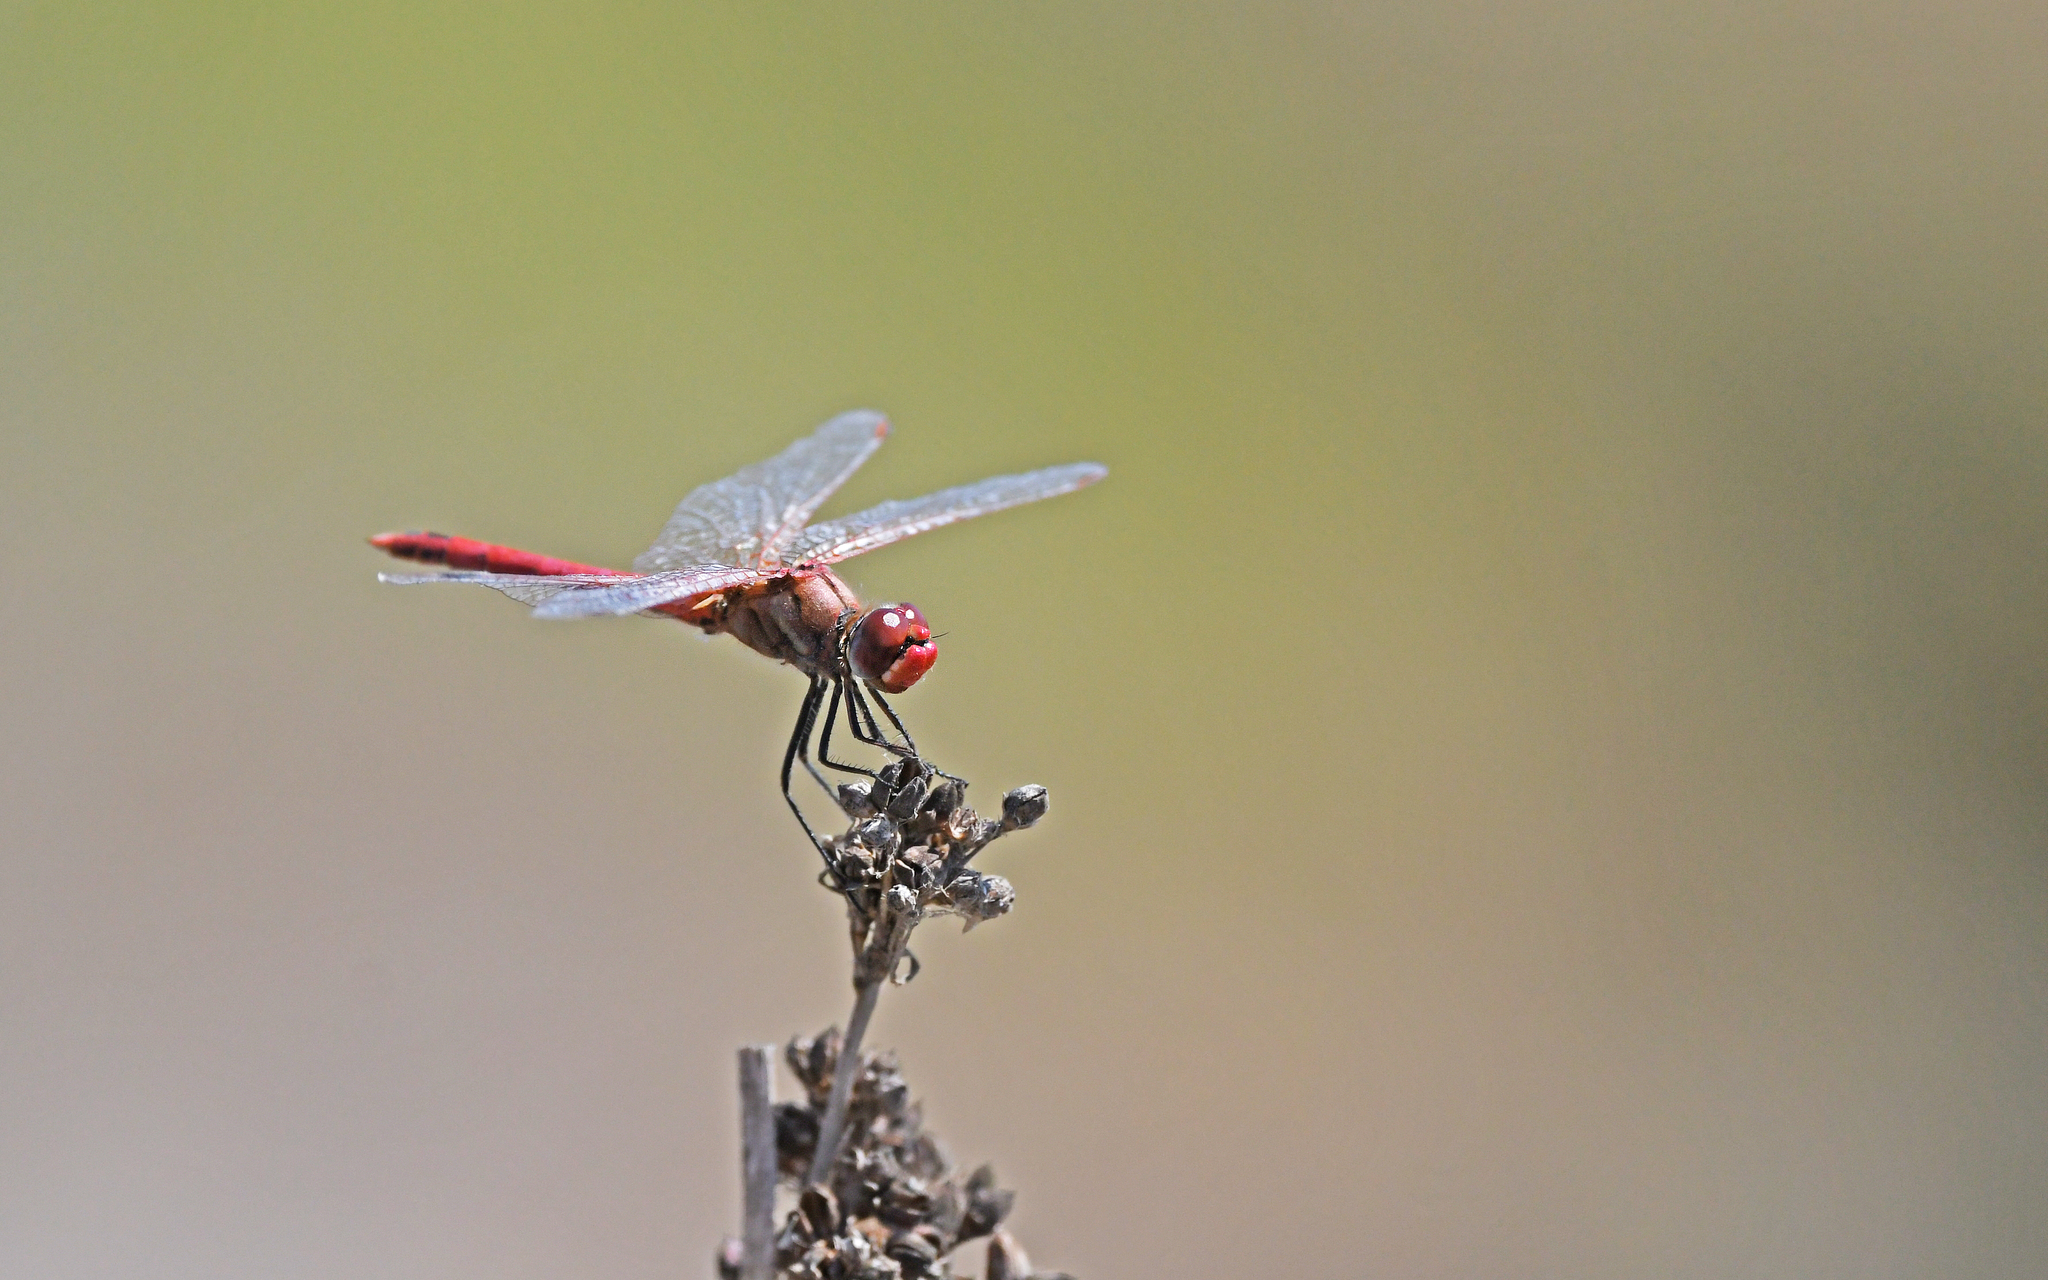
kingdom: Animalia
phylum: Arthropoda
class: Insecta
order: Odonata
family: Libellulidae
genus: Sympetrum
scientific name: Sympetrum fonscolombii
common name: Red-veined darter
